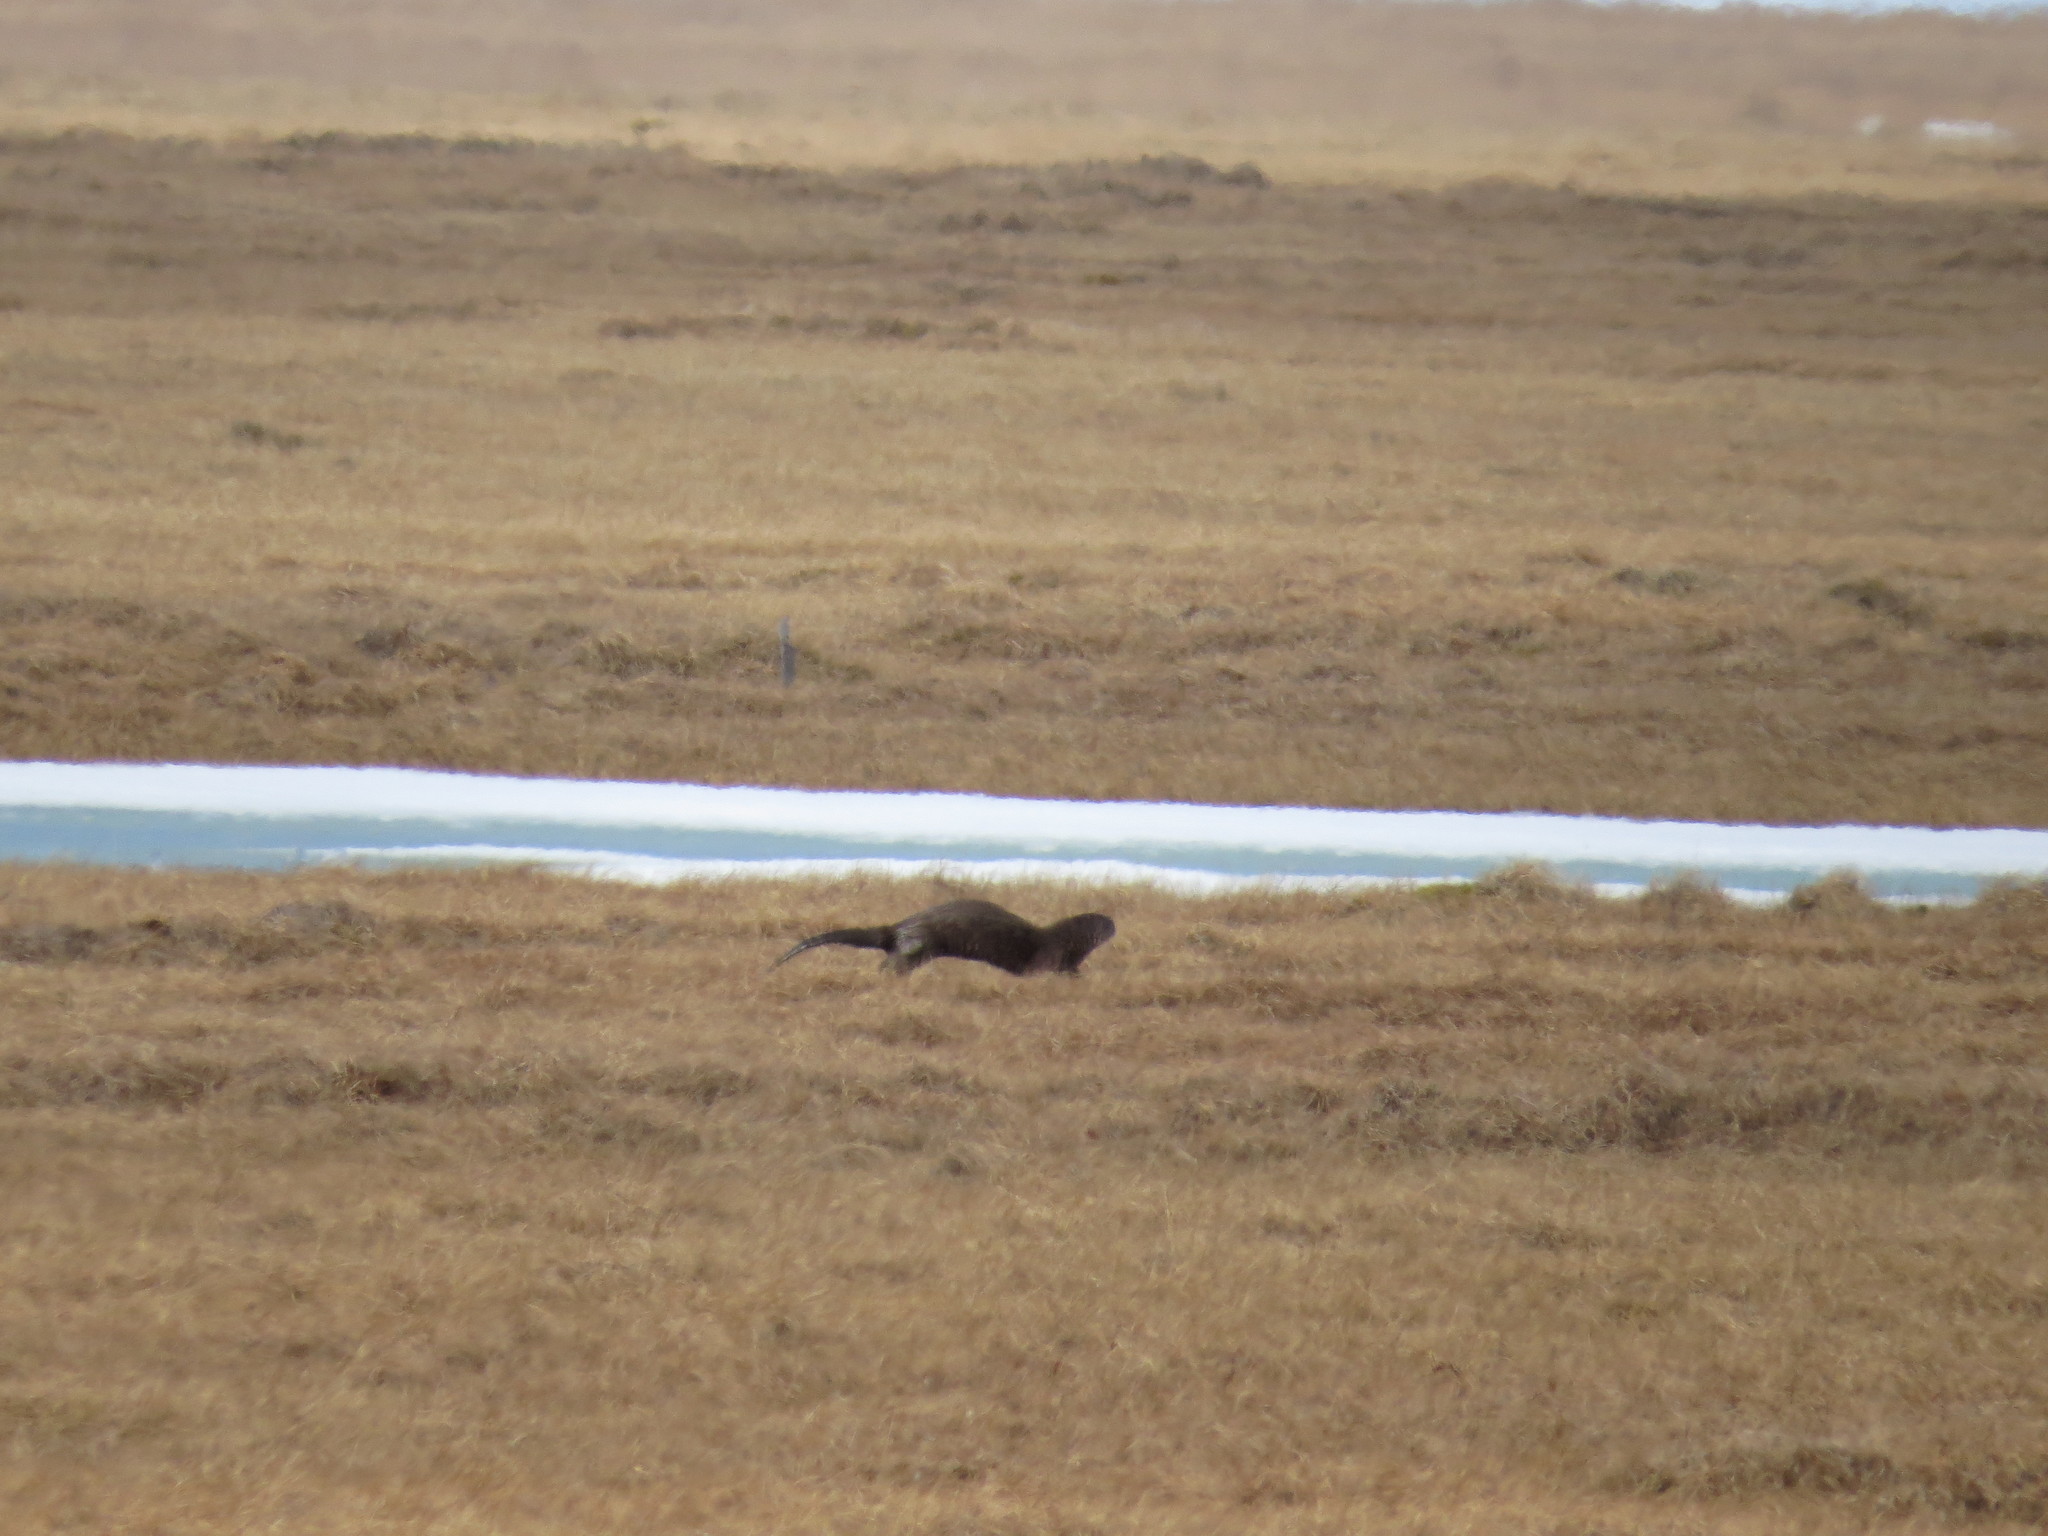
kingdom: Animalia
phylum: Chordata
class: Mammalia
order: Carnivora
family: Mustelidae
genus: Lontra
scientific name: Lontra canadensis
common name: North american river otter
